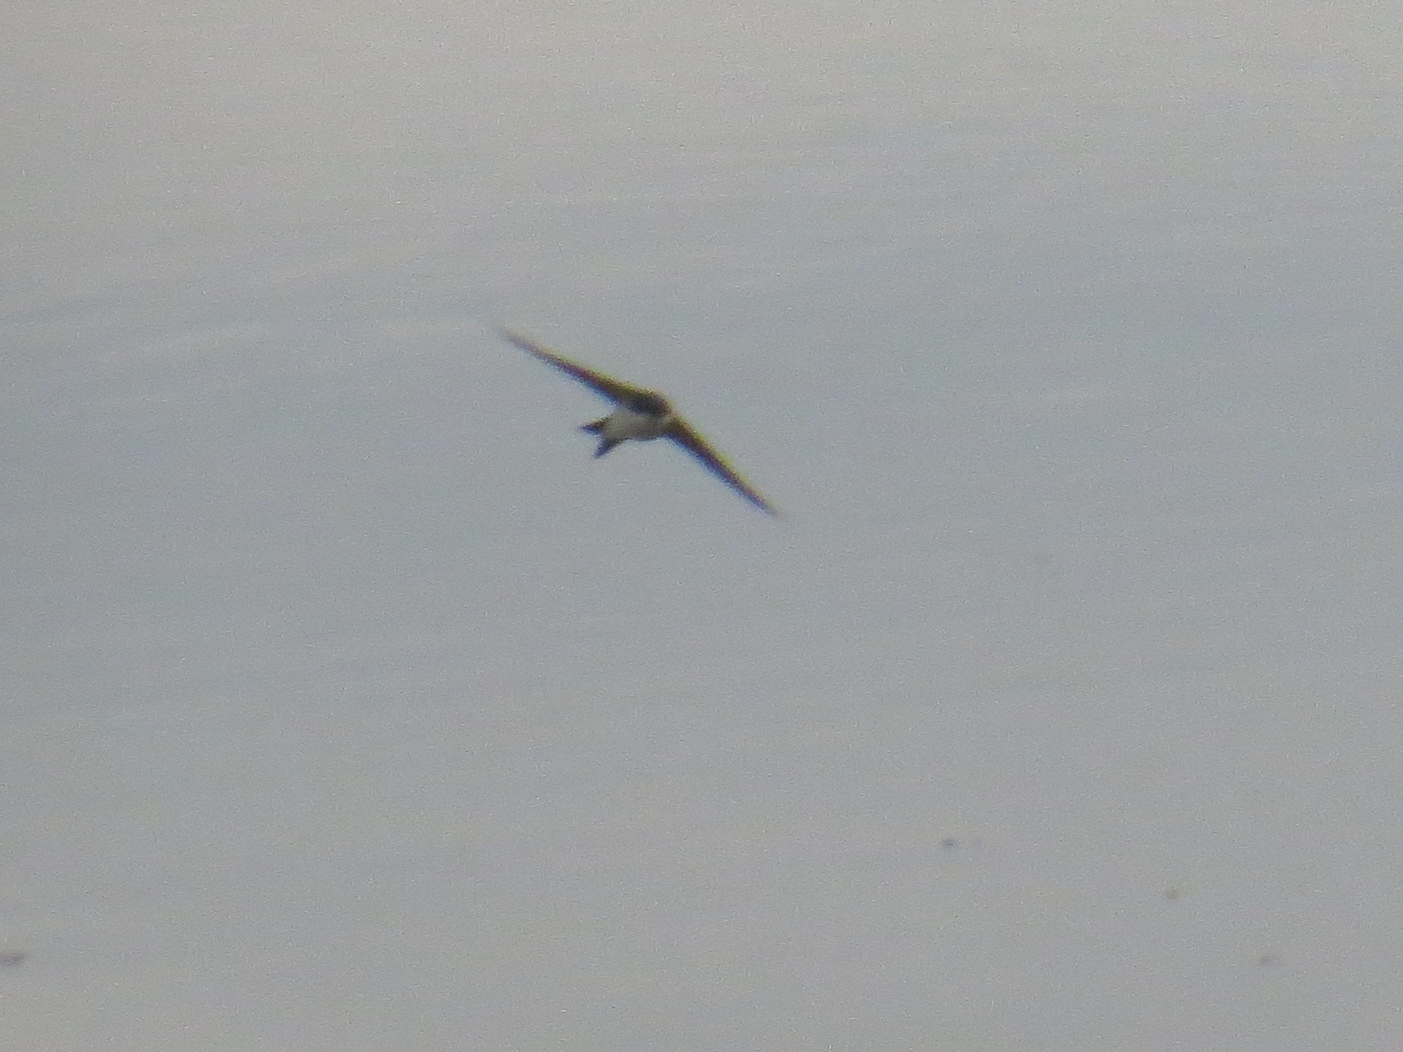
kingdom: Animalia
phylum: Chordata
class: Aves
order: Passeriformes
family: Hirundinidae
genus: Delichon
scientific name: Delichon urbicum
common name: Common house martin
